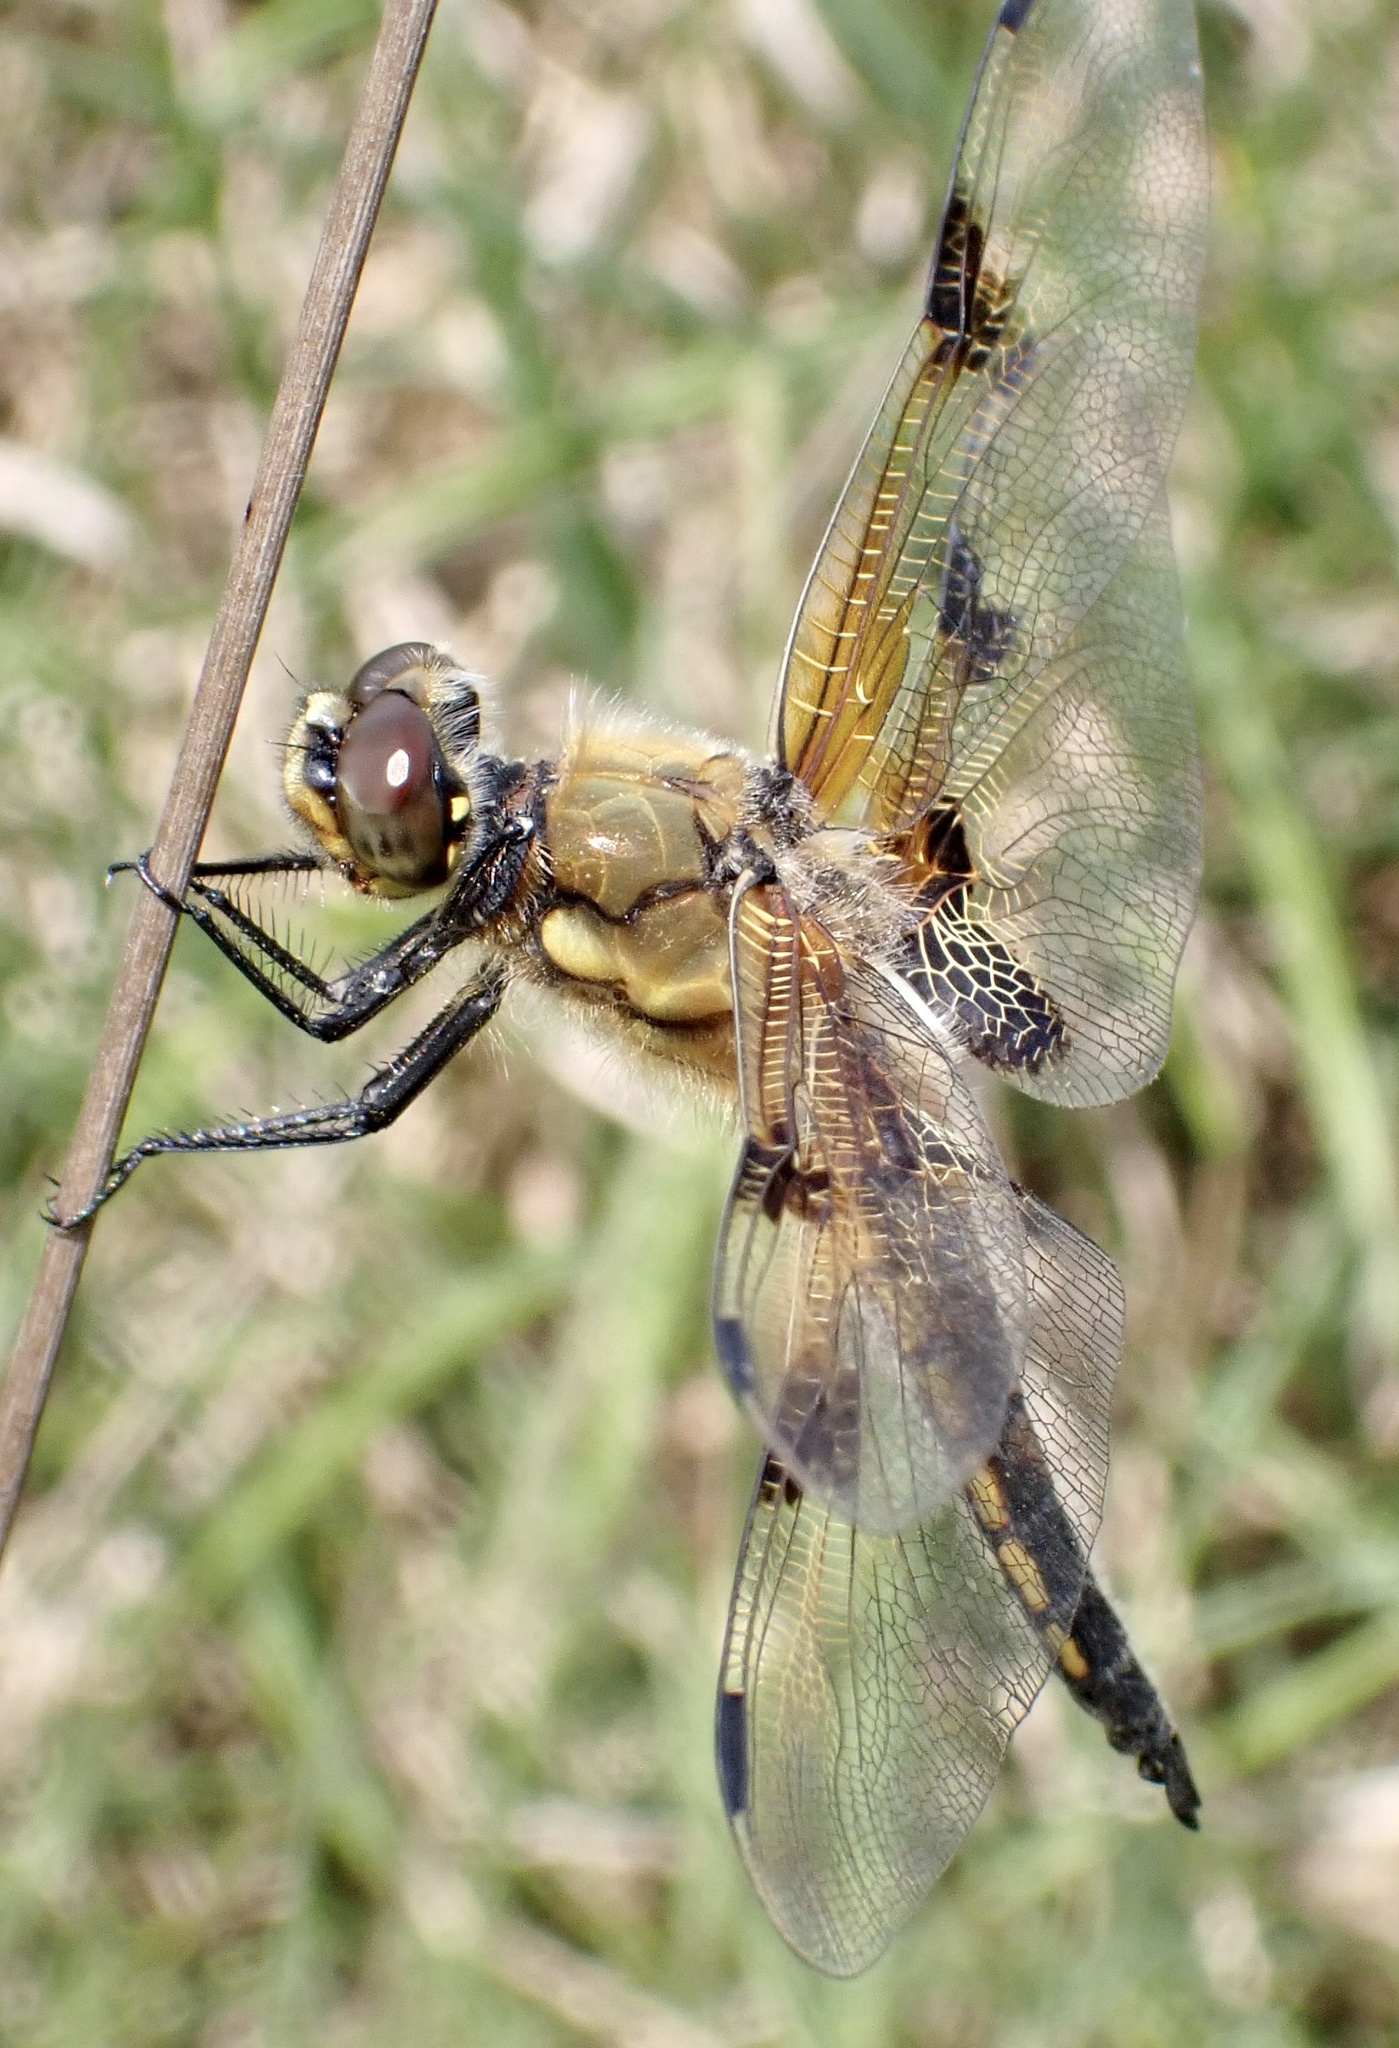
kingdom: Animalia
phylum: Arthropoda
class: Insecta
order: Odonata
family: Libellulidae
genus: Libellula
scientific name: Libellula quadrimaculata
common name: Four-spotted chaser
